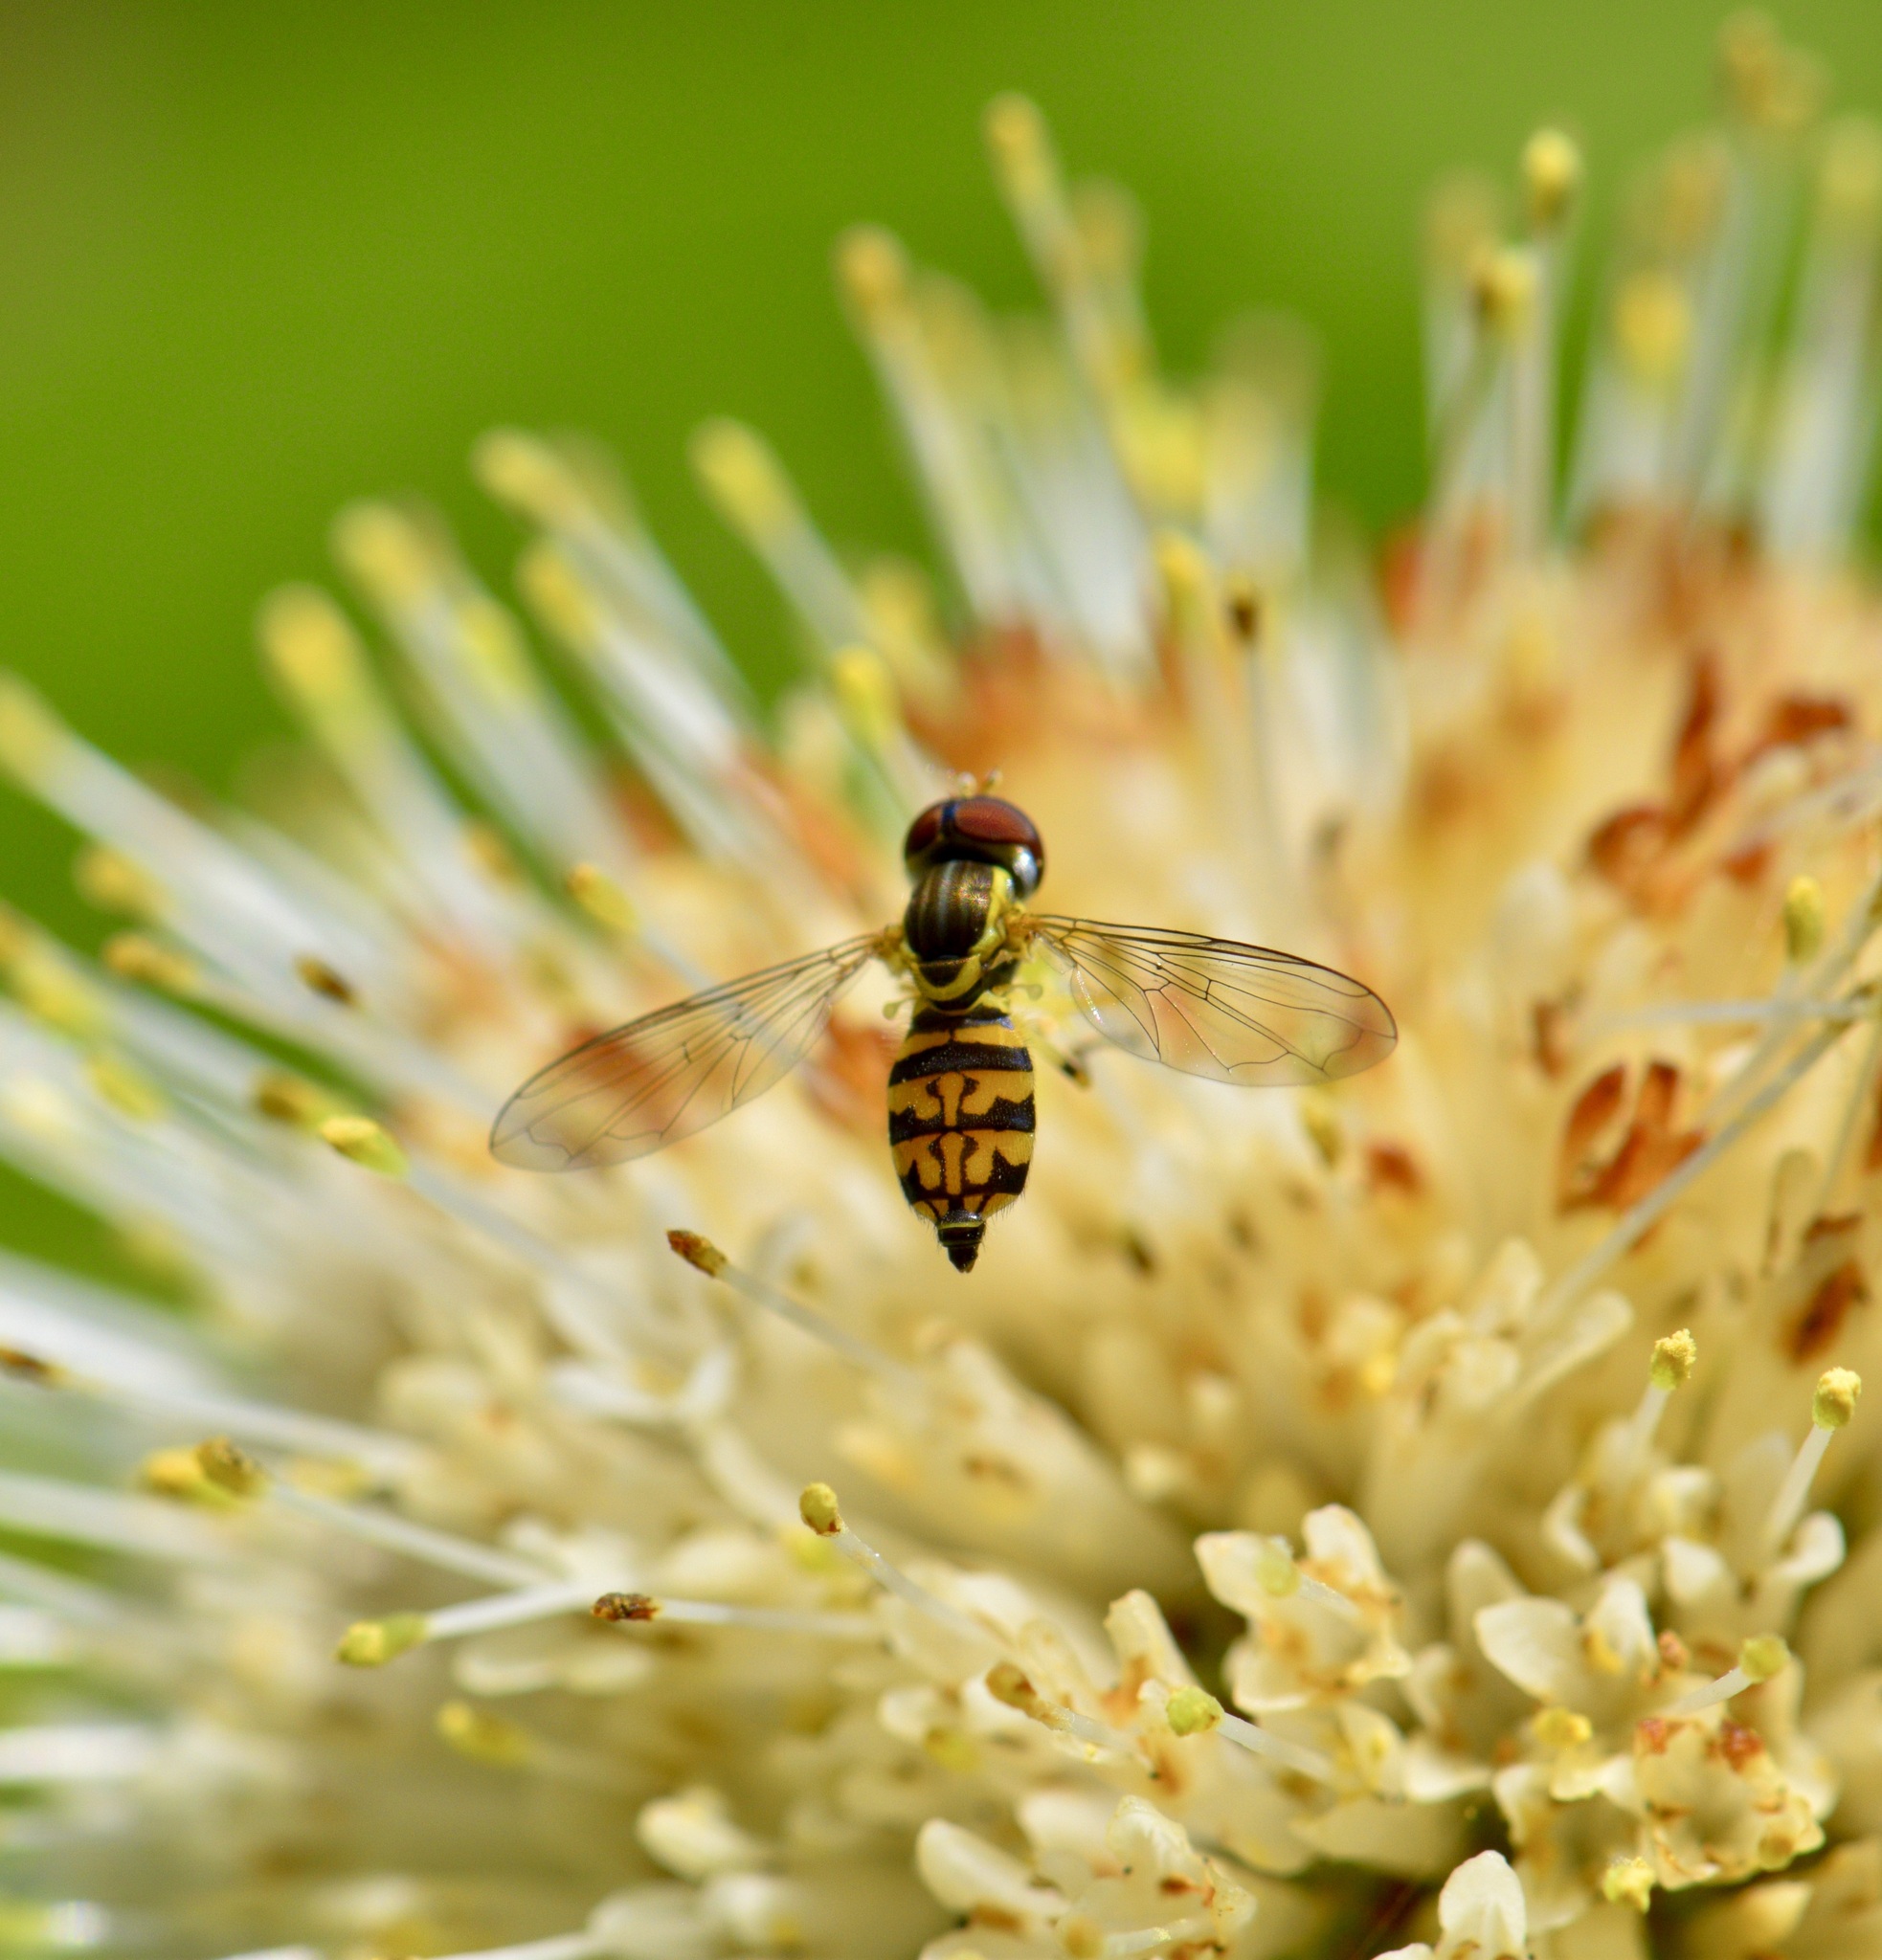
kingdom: Animalia
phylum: Arthropoda
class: Insecta
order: Diptera
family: Syrphidae
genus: Toxomerus
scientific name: Toxomerus geminatus
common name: Eastern calligrapher
